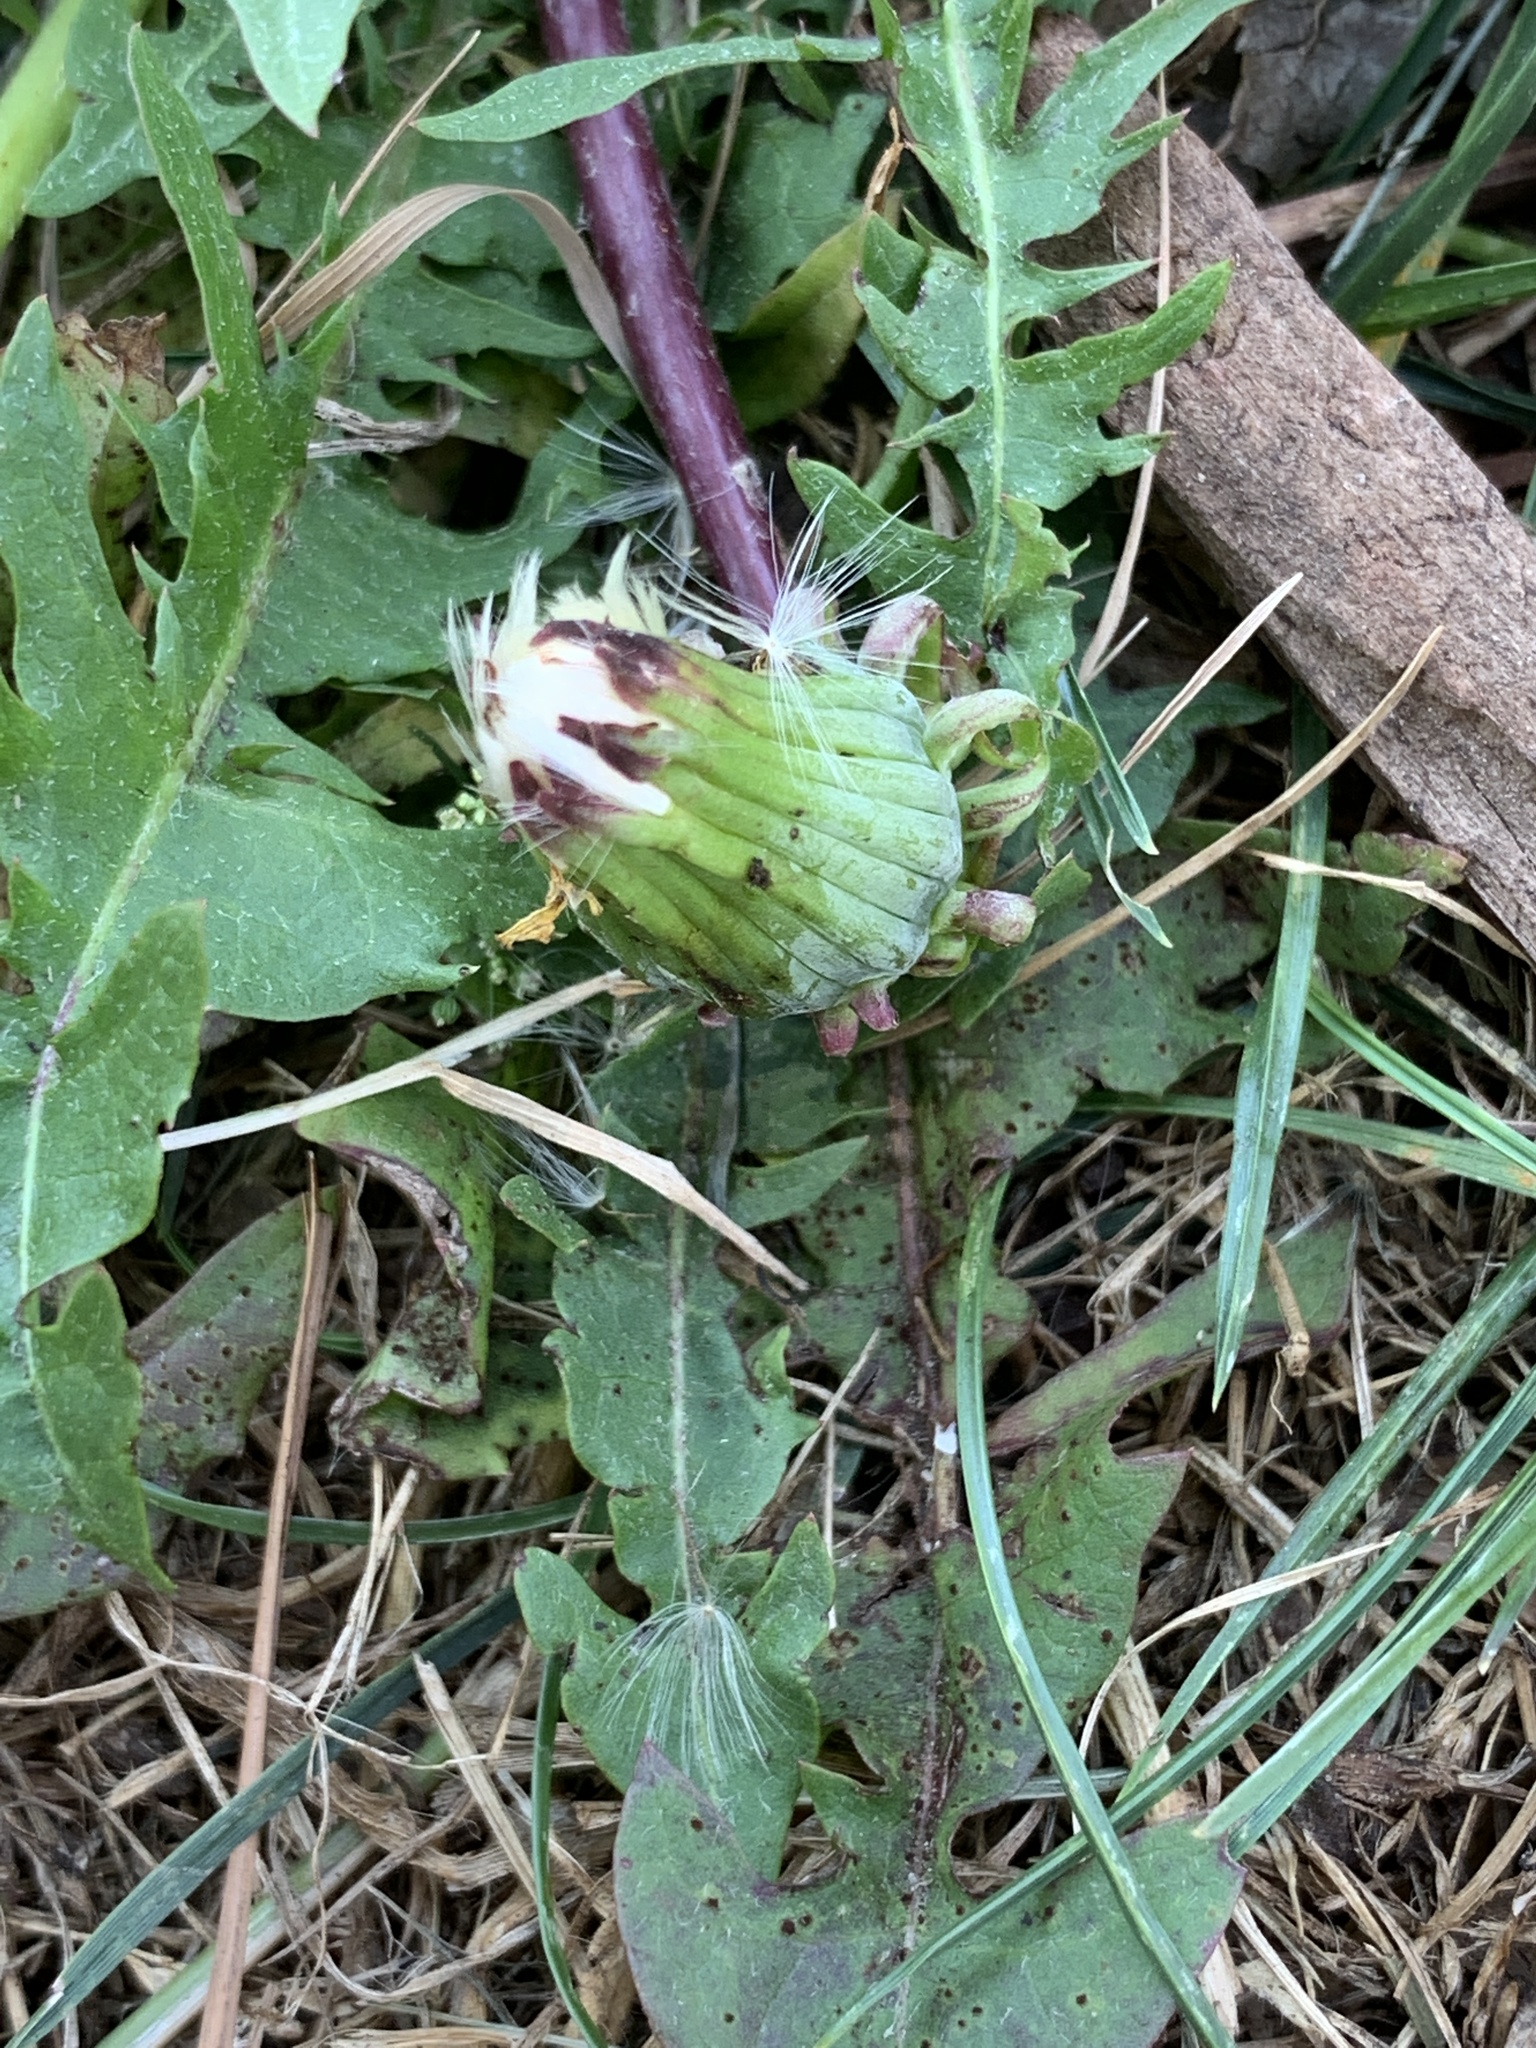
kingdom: Plantae
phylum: Tracheophyta
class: Magnoliopsida
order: Asterales
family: Asteraceae
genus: Taraxacum
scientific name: Taraxacum officinale
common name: Common dandelion
